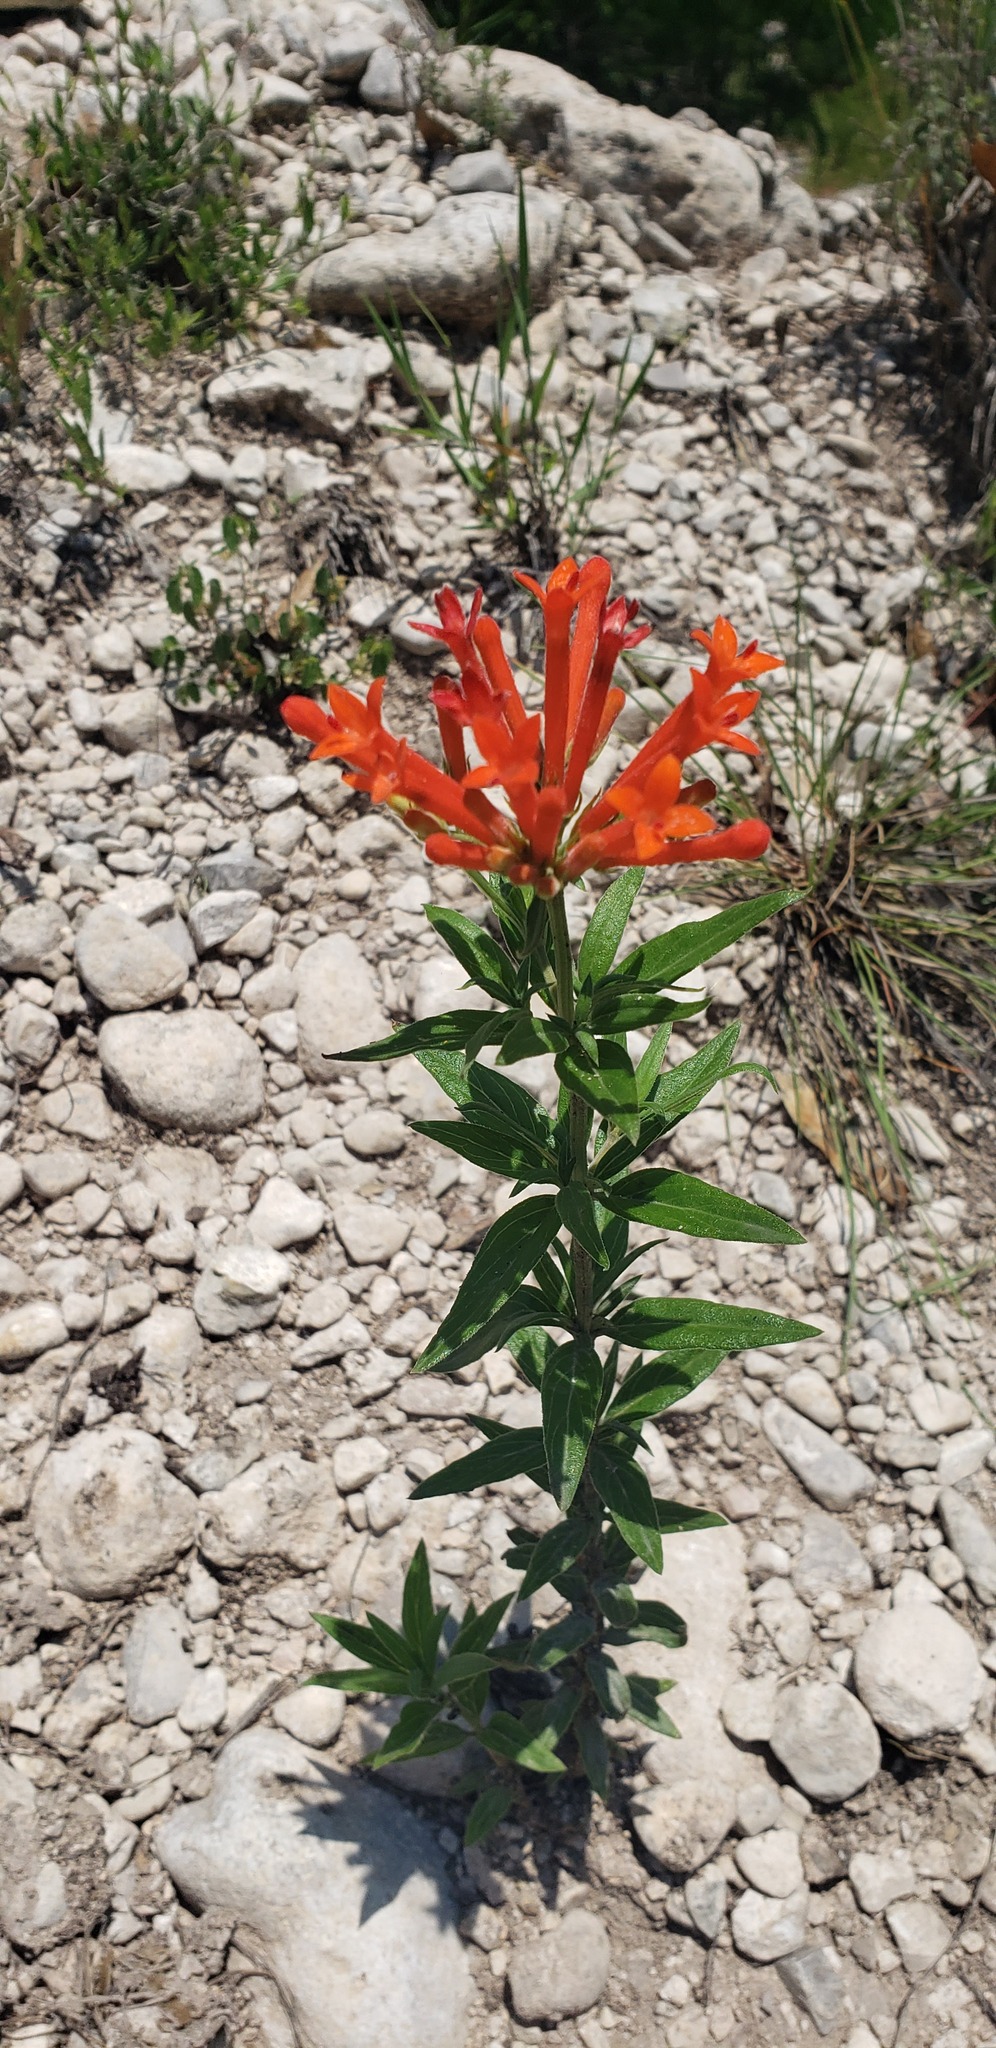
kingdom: Plantae
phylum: Tracheophyta
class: Magnoliopsida
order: Gentianales
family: Rubiaceae
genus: Bouvardia
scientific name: Bouvardia ternifolia
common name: Scarlet bouvardia
